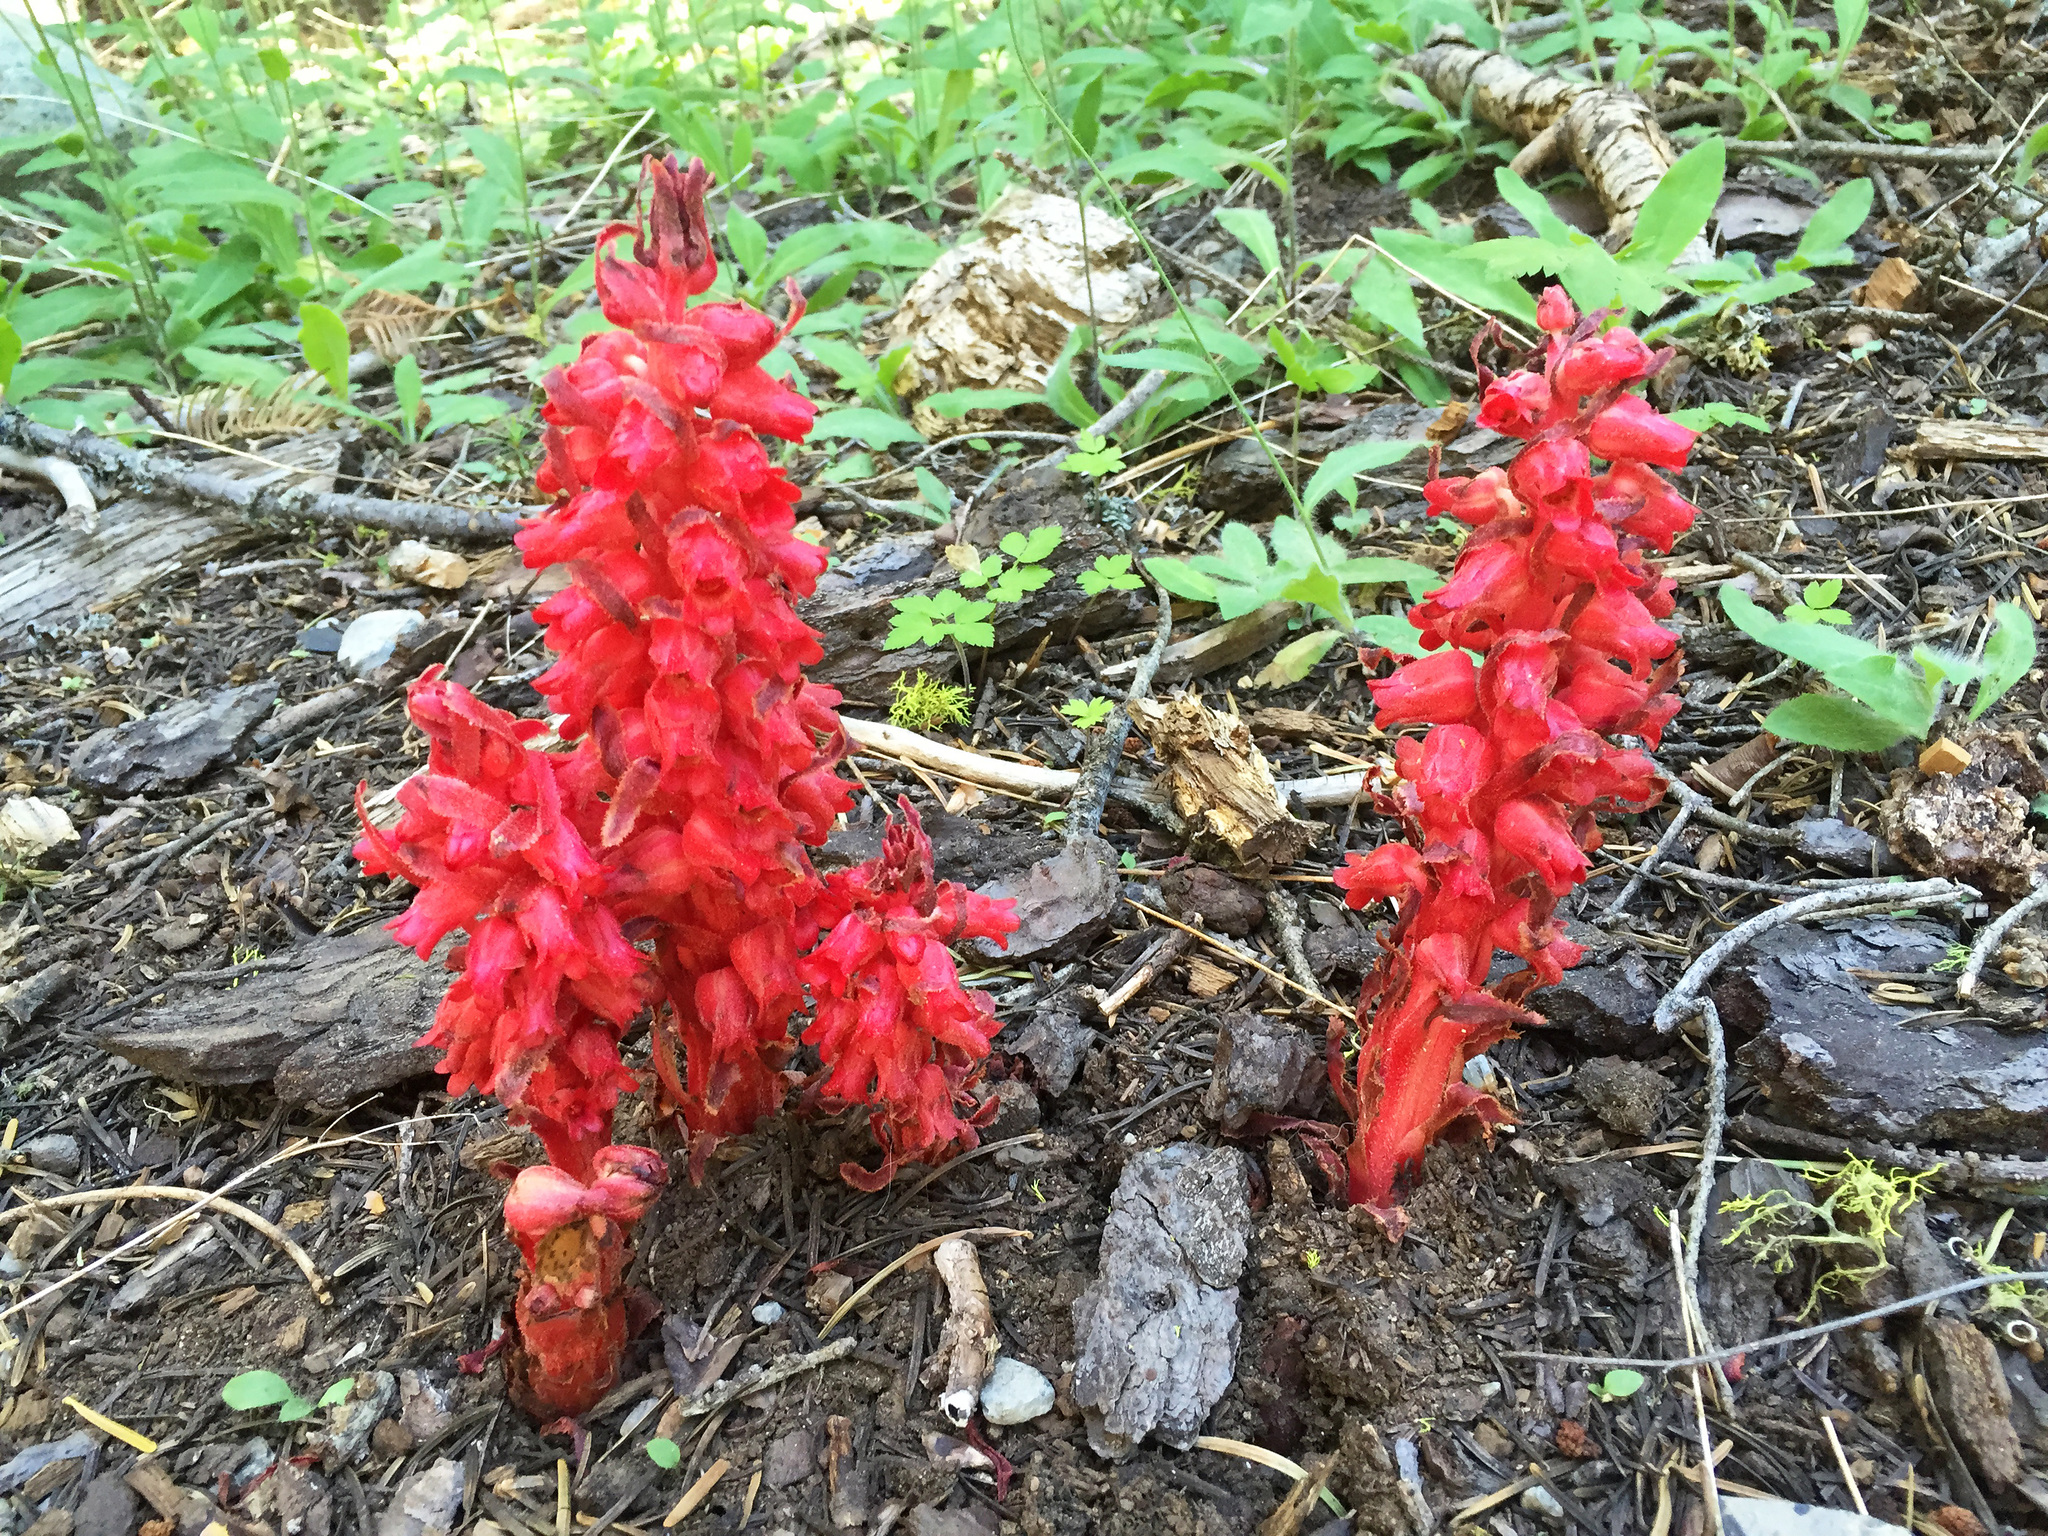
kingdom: Plantae
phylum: Tracheophyta
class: Magnoliopsida
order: Ericales
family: Ericaceae
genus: Sarcodes
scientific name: Sarcodes sanguinea
